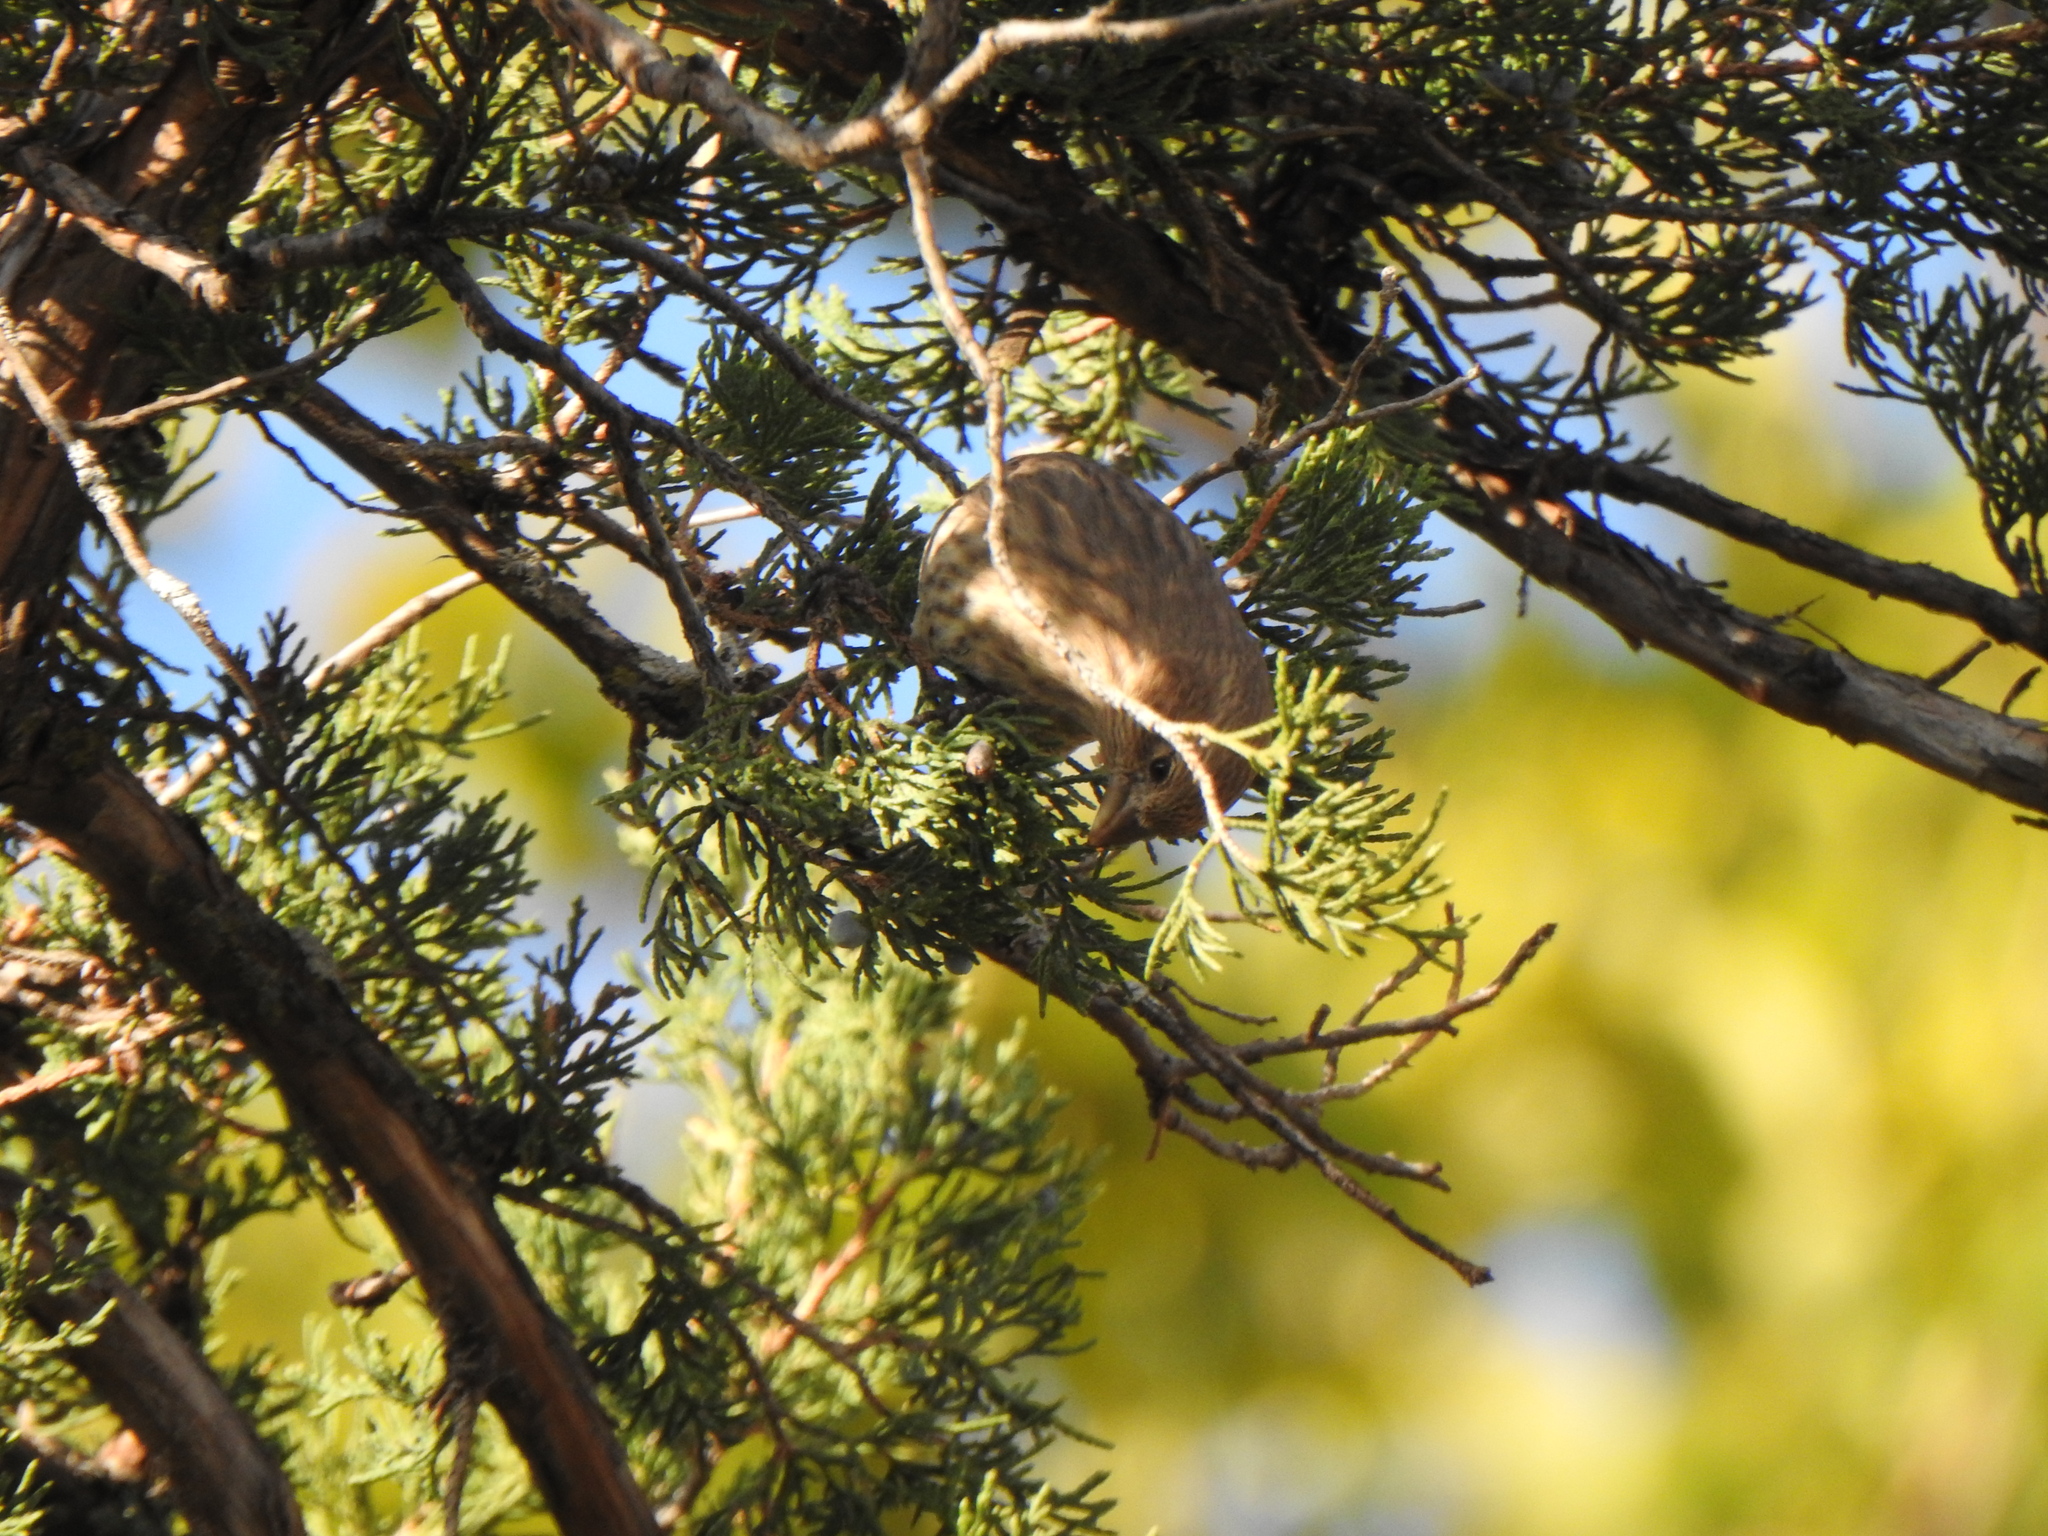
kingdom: Animalia
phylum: Chordata
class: Aves
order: Passeriformes
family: Fringillidae
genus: Haemorhous
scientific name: Haemorhous mexicanus
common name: House finch
